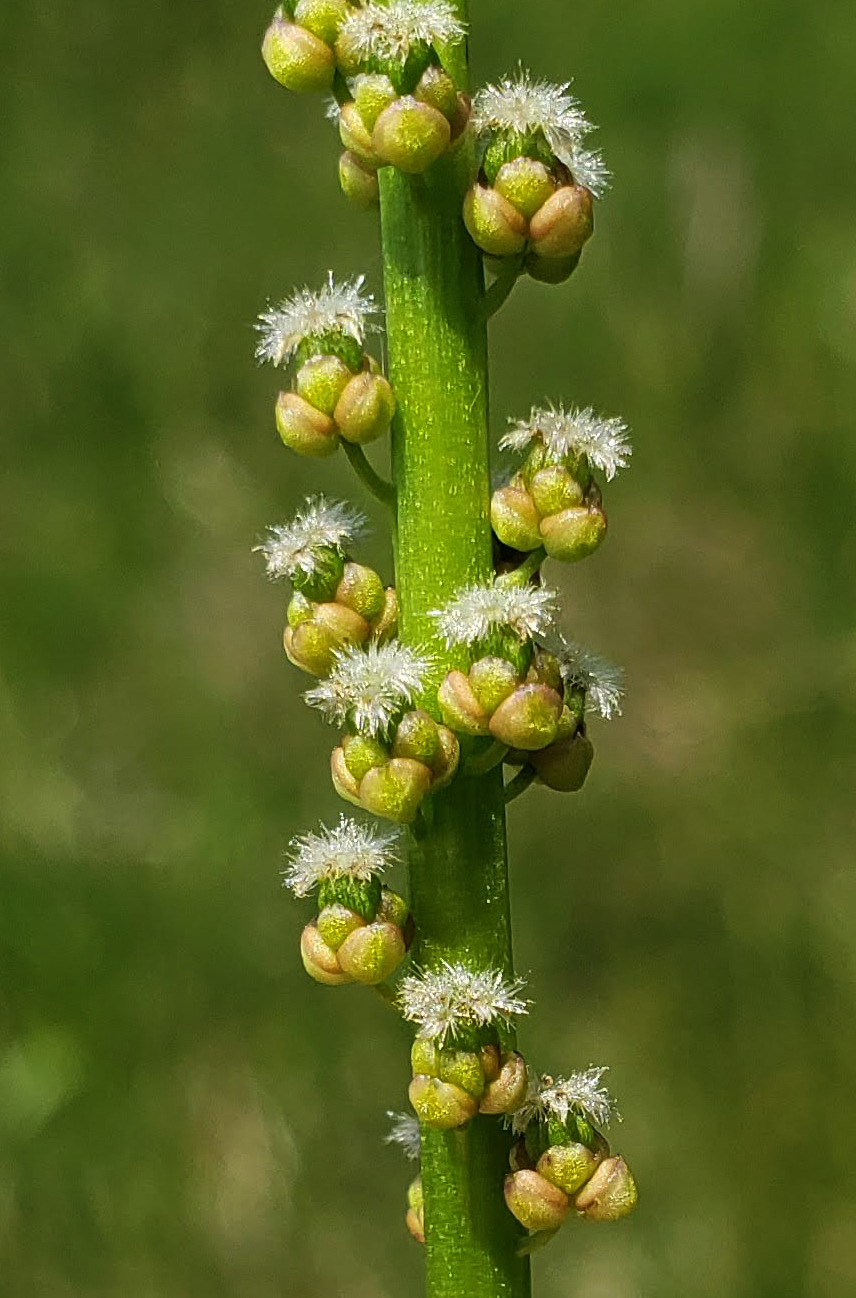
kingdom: Plantae
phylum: Tracheophyta
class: Liliopsida
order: Alismatales
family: Juncaginaceae
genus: Triglochin
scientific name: Triglochin maritima
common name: Sea arrowgrass
